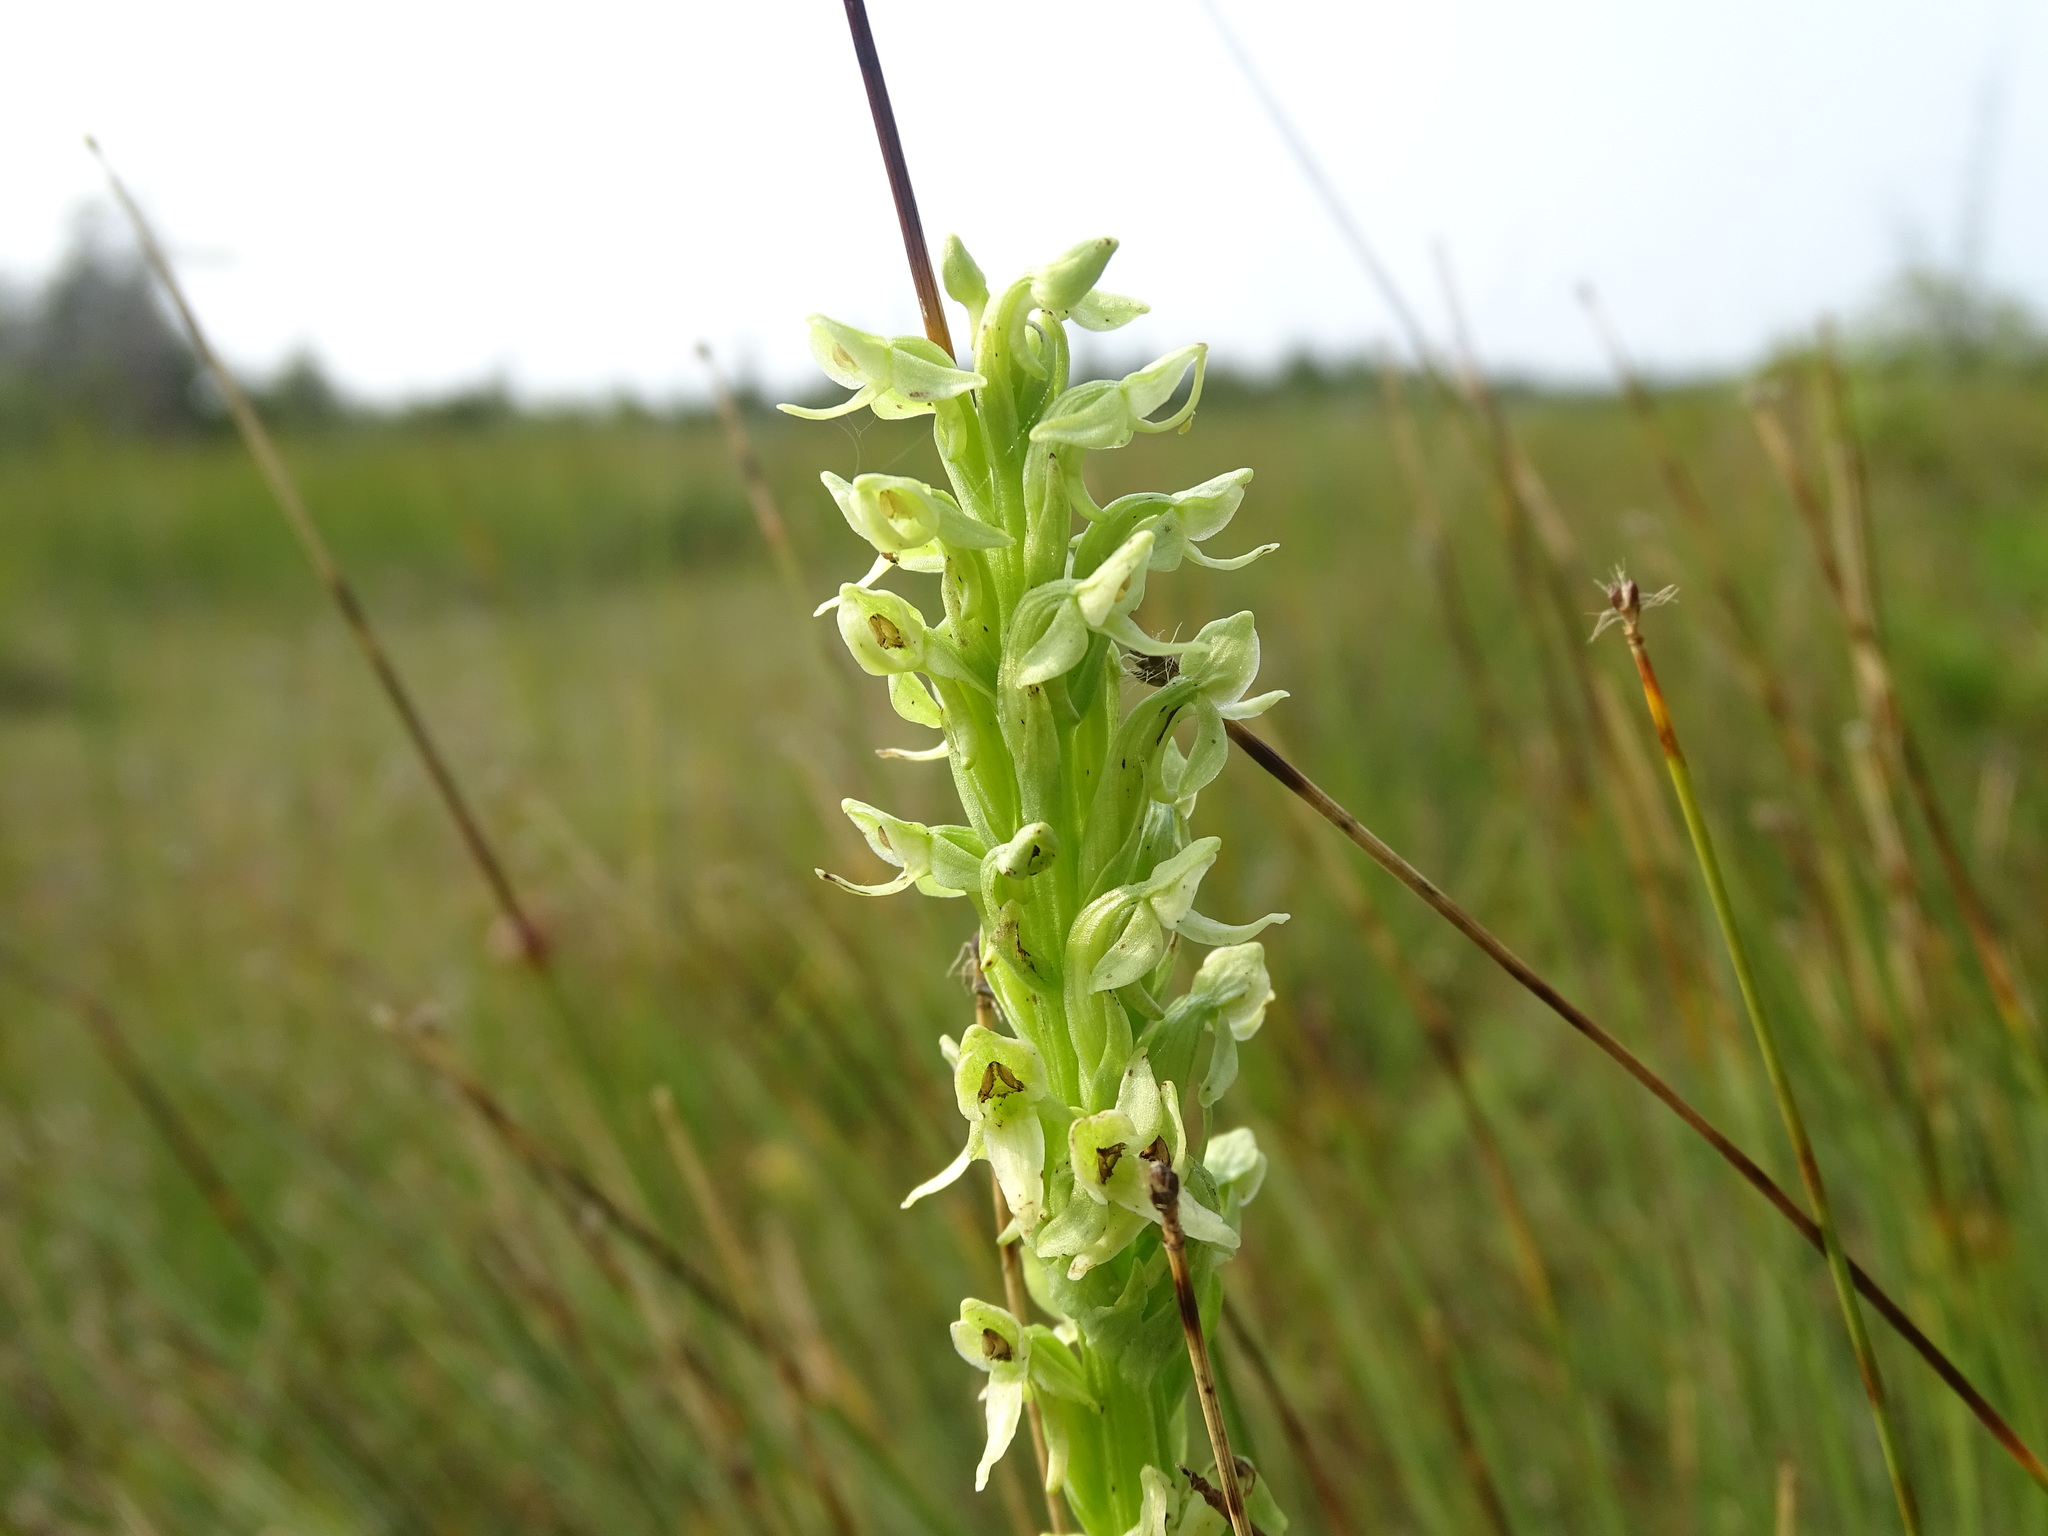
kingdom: Plantae
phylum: Tracheophyta
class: Liliopsida
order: Asparagales
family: Orchidaceae
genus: Platanthera
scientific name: Platanthera huronensis
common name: Fragrant green orchid
